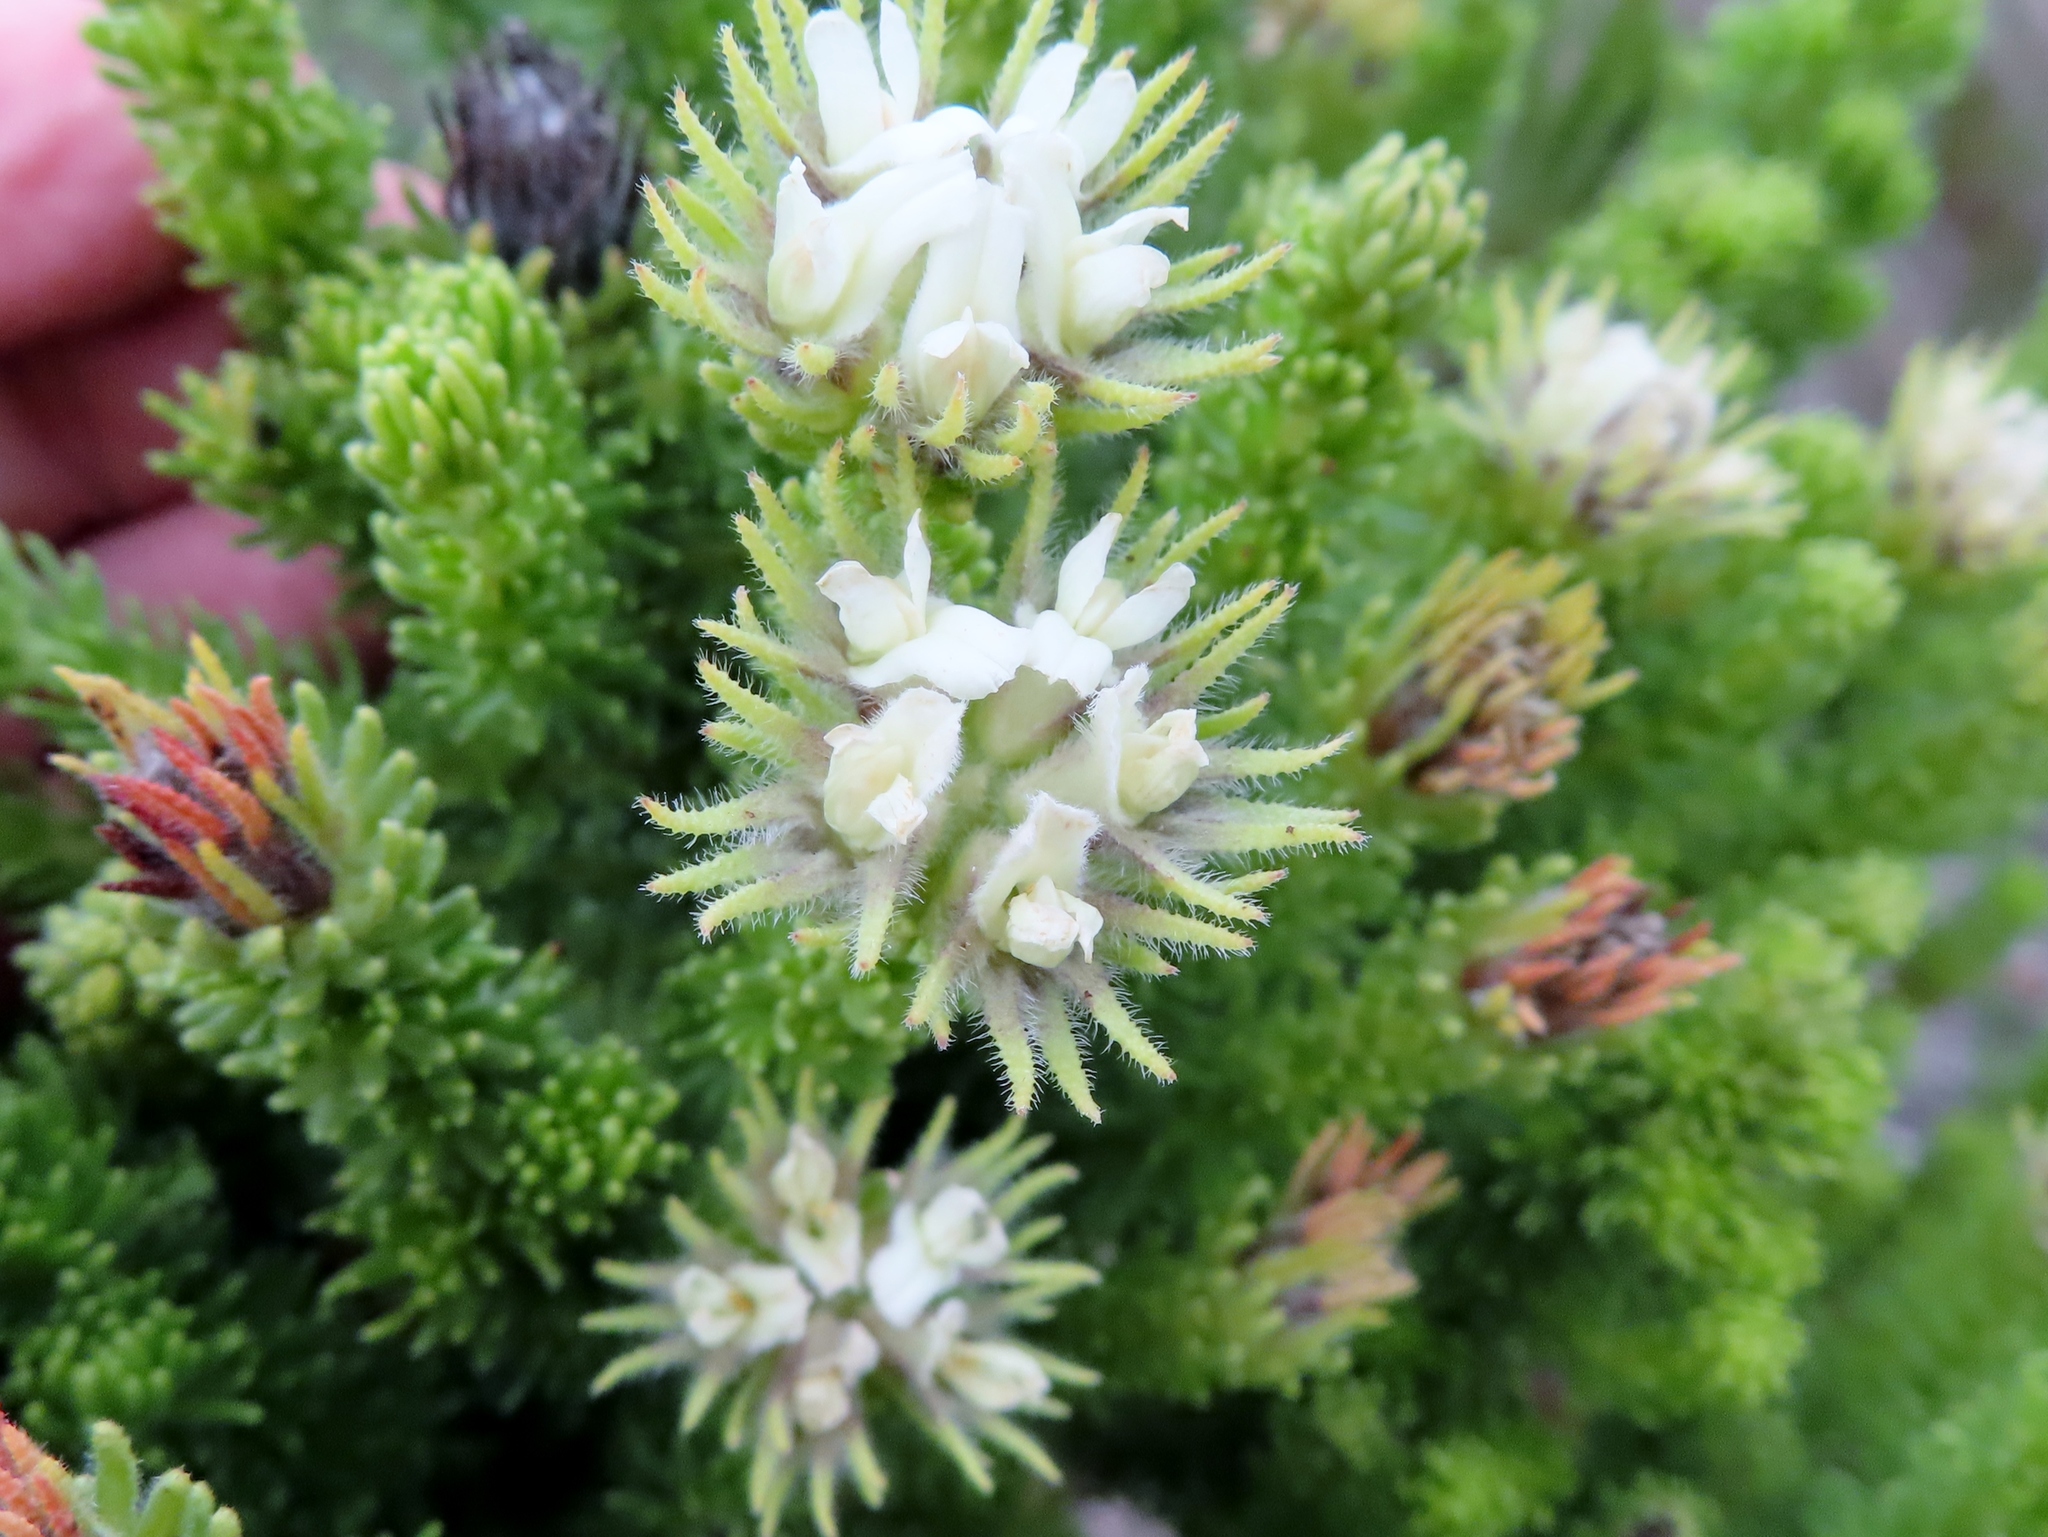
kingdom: Plantae
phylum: Tracheophyta
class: Magnoliopsida
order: Fabales
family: Fabaceae
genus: Aspalathus
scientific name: Aspalathus forbesii
